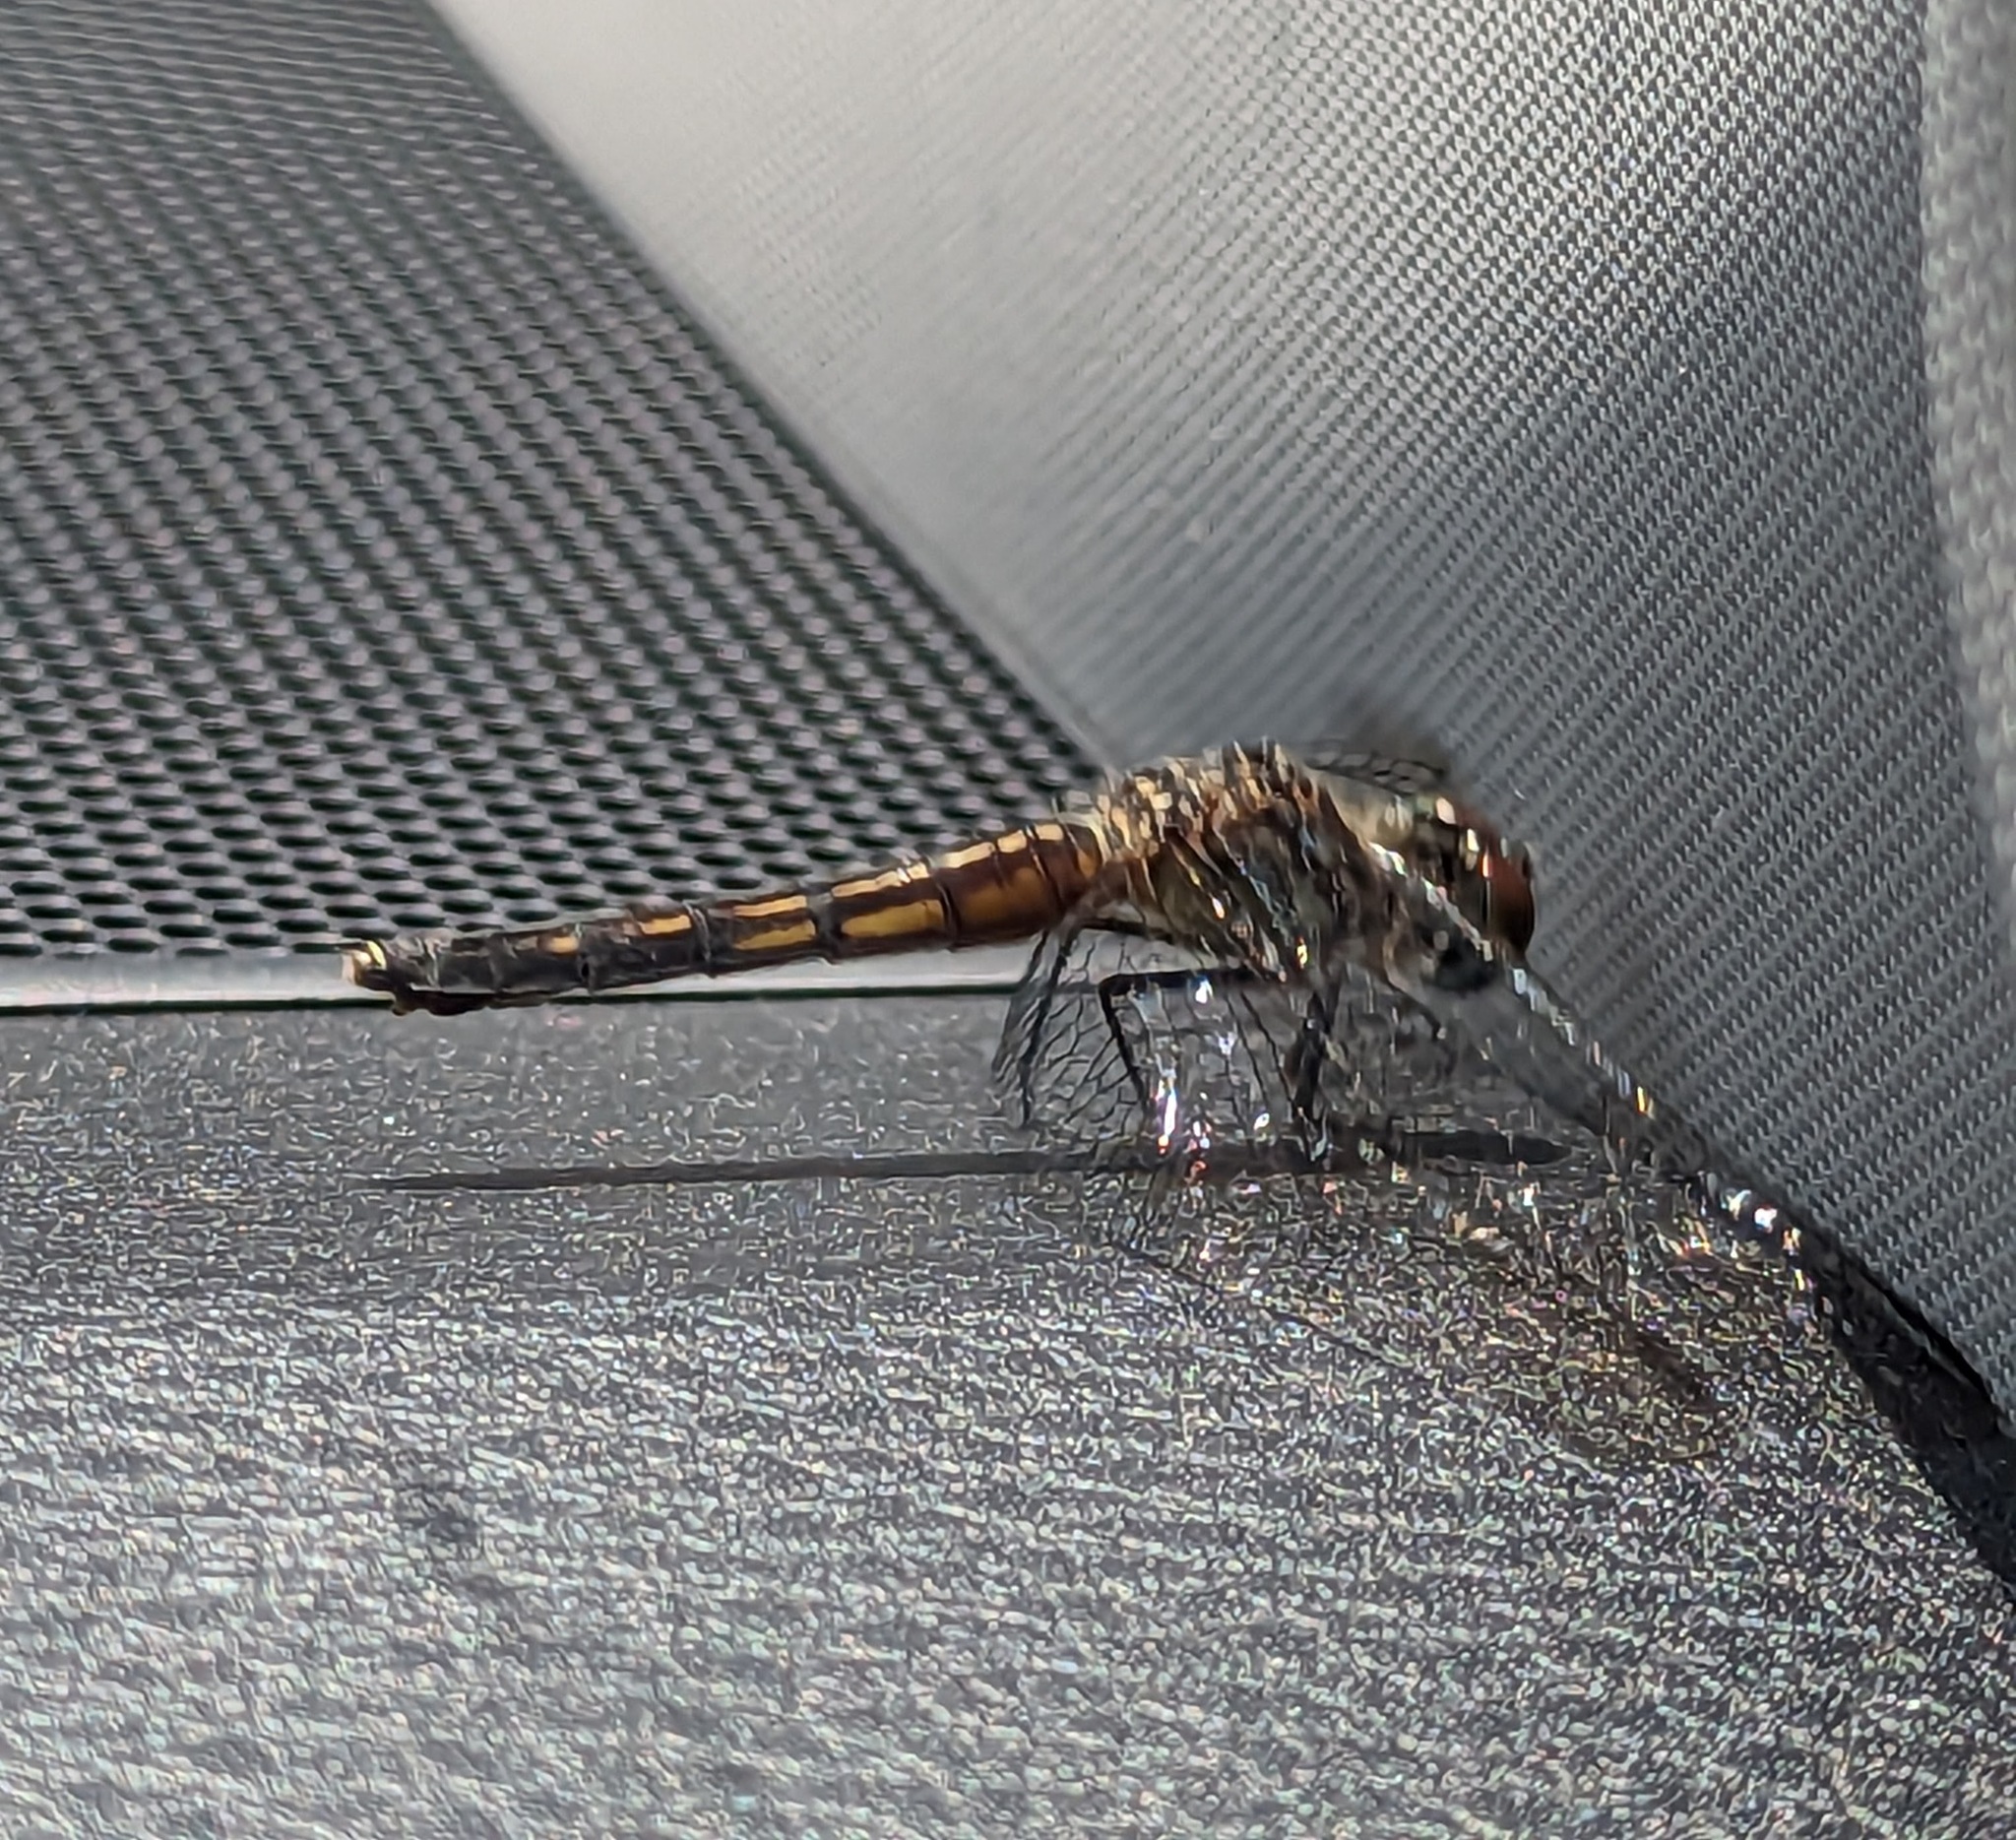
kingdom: Animalia
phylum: Arthropoda
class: Insecta
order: Odonata
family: Libellulidae
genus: Pachydiplax
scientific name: Pachydiplax longipennis
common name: Blue dasher
